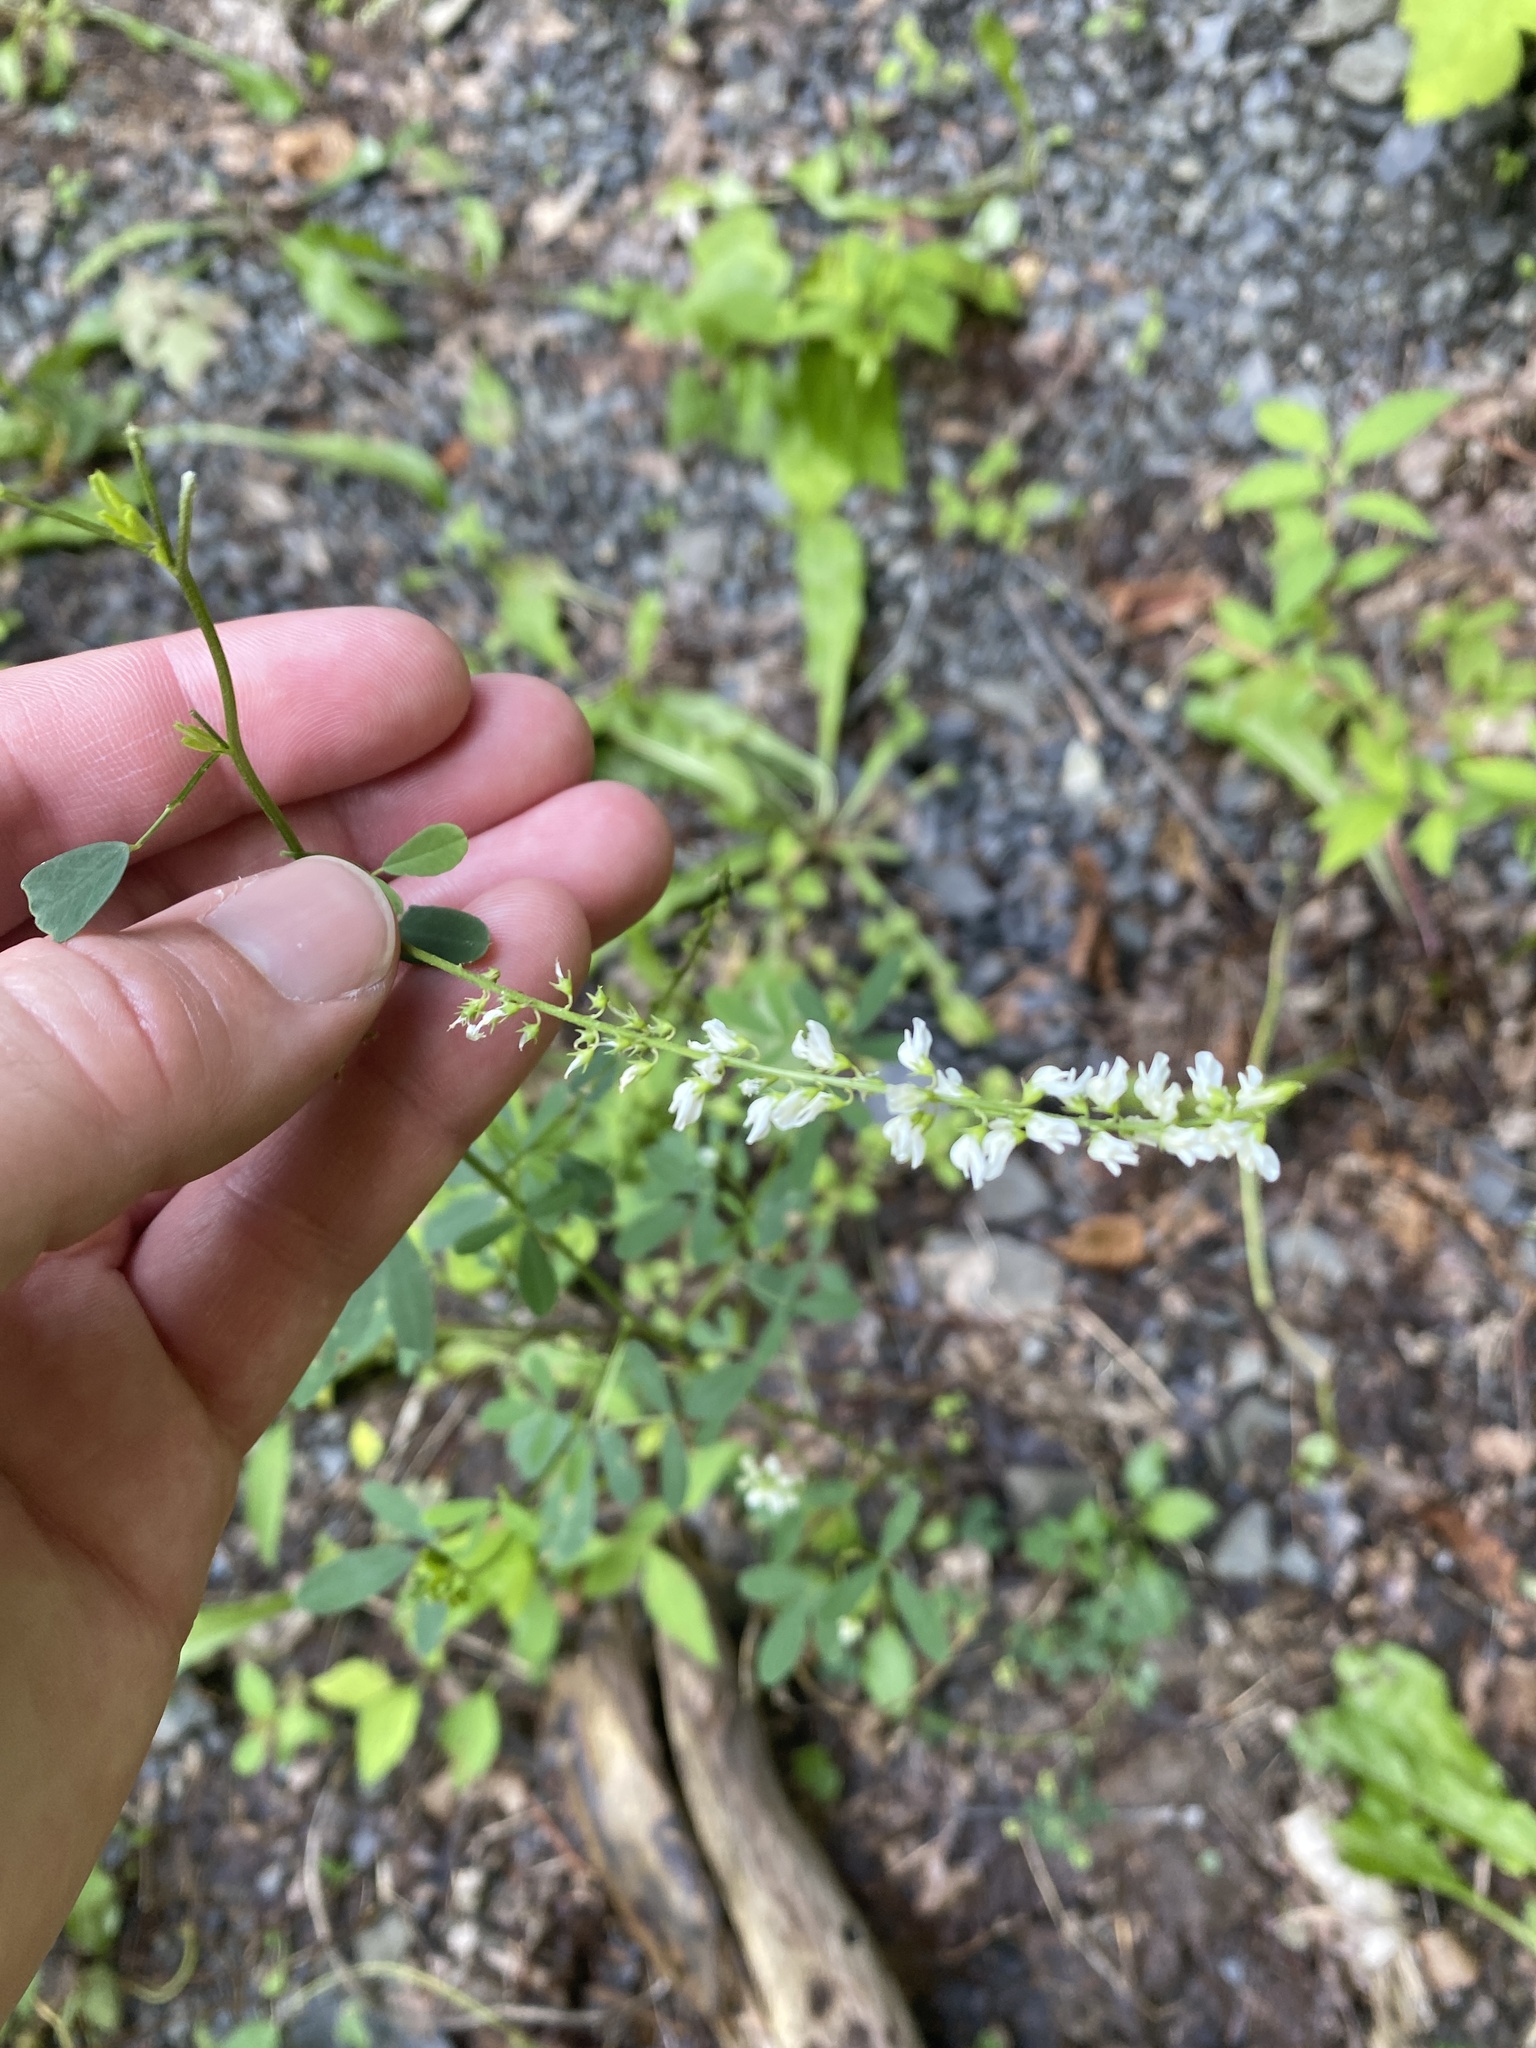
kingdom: Plantae
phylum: Tracheophyta
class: Magnoliopsida
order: Fabales
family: Fabaceae
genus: Melilotus
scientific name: Melilotus albus
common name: White melilot
